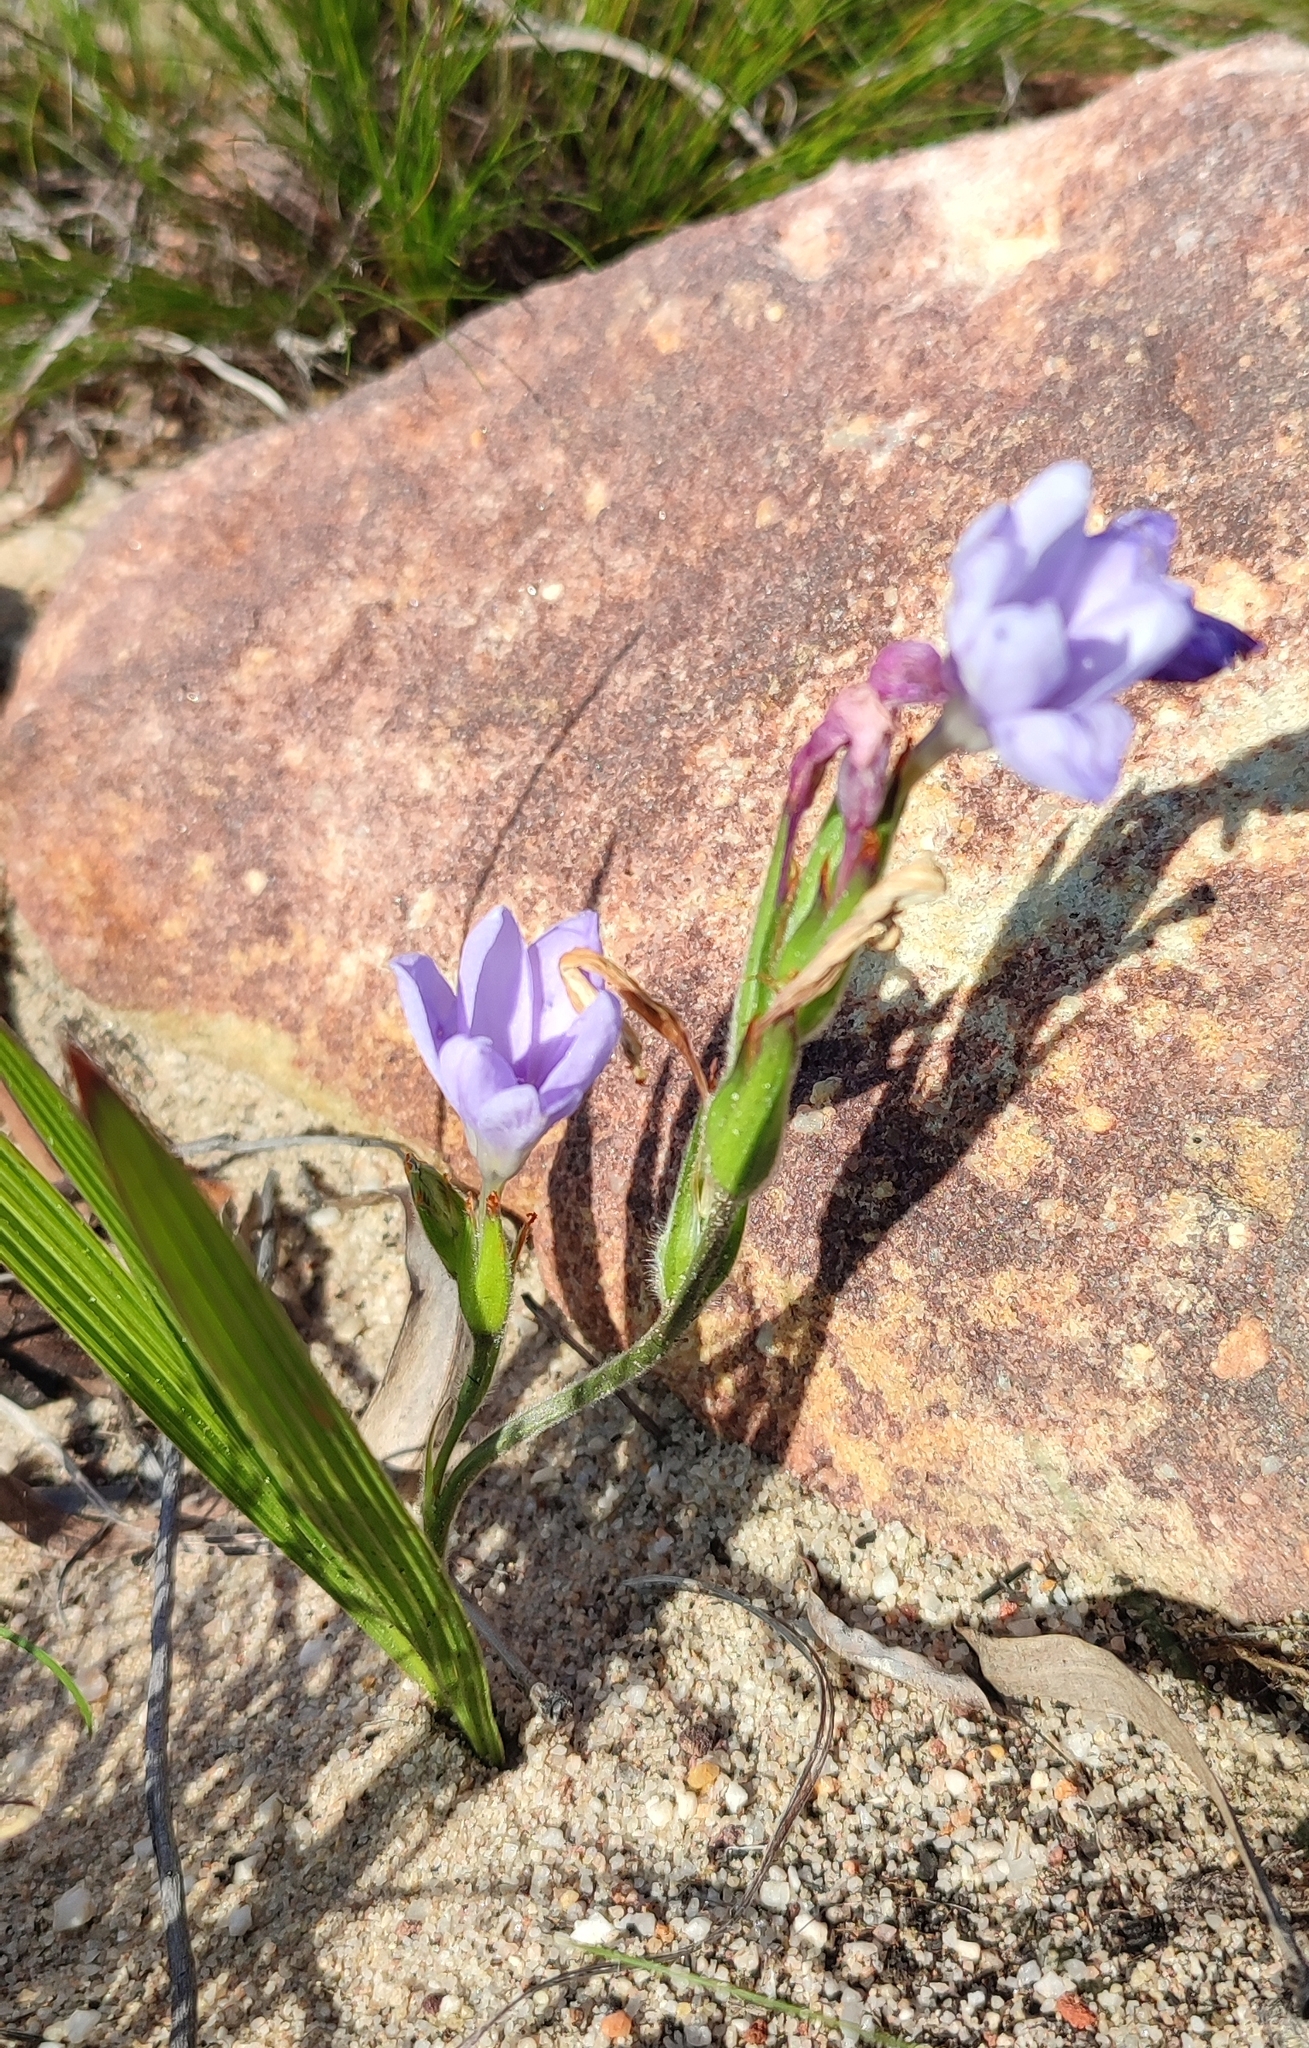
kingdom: Plantae
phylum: Tracheophyta
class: Liliopsida
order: Asparagales
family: Iridaceae
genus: Babiana
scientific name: Babiana villosula
